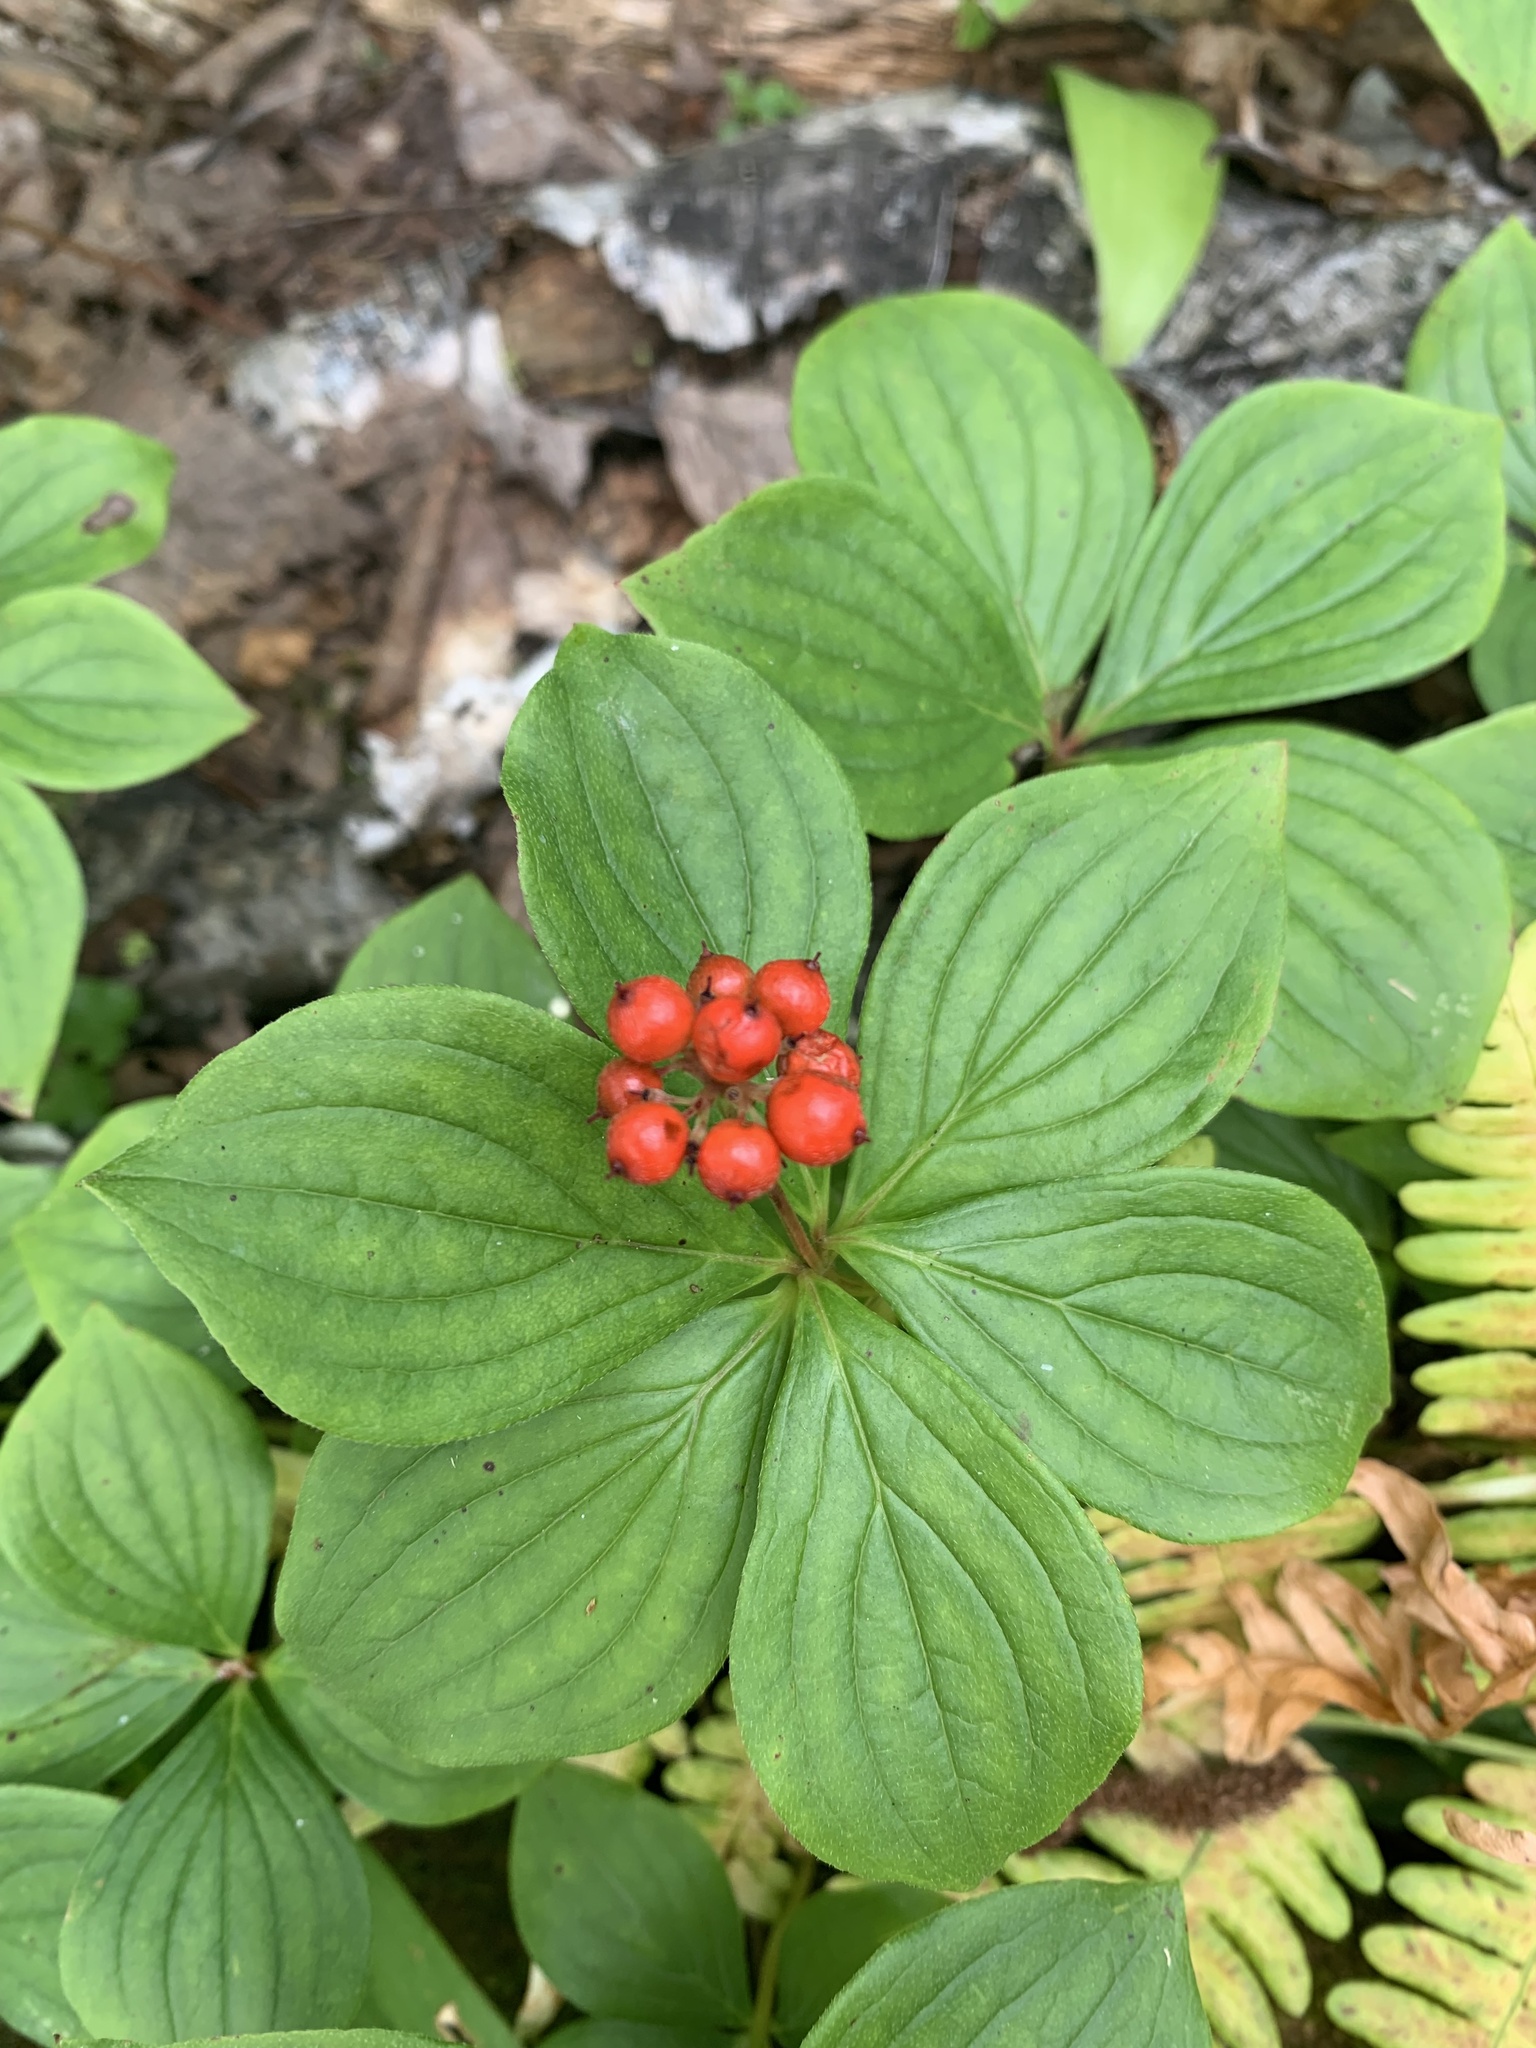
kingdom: Plantae
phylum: Tracheophyta
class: Magnoliopsida
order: Cornales
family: Cornaceae
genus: Cornus
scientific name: Cornus canadensis
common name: Creeping dogwood
